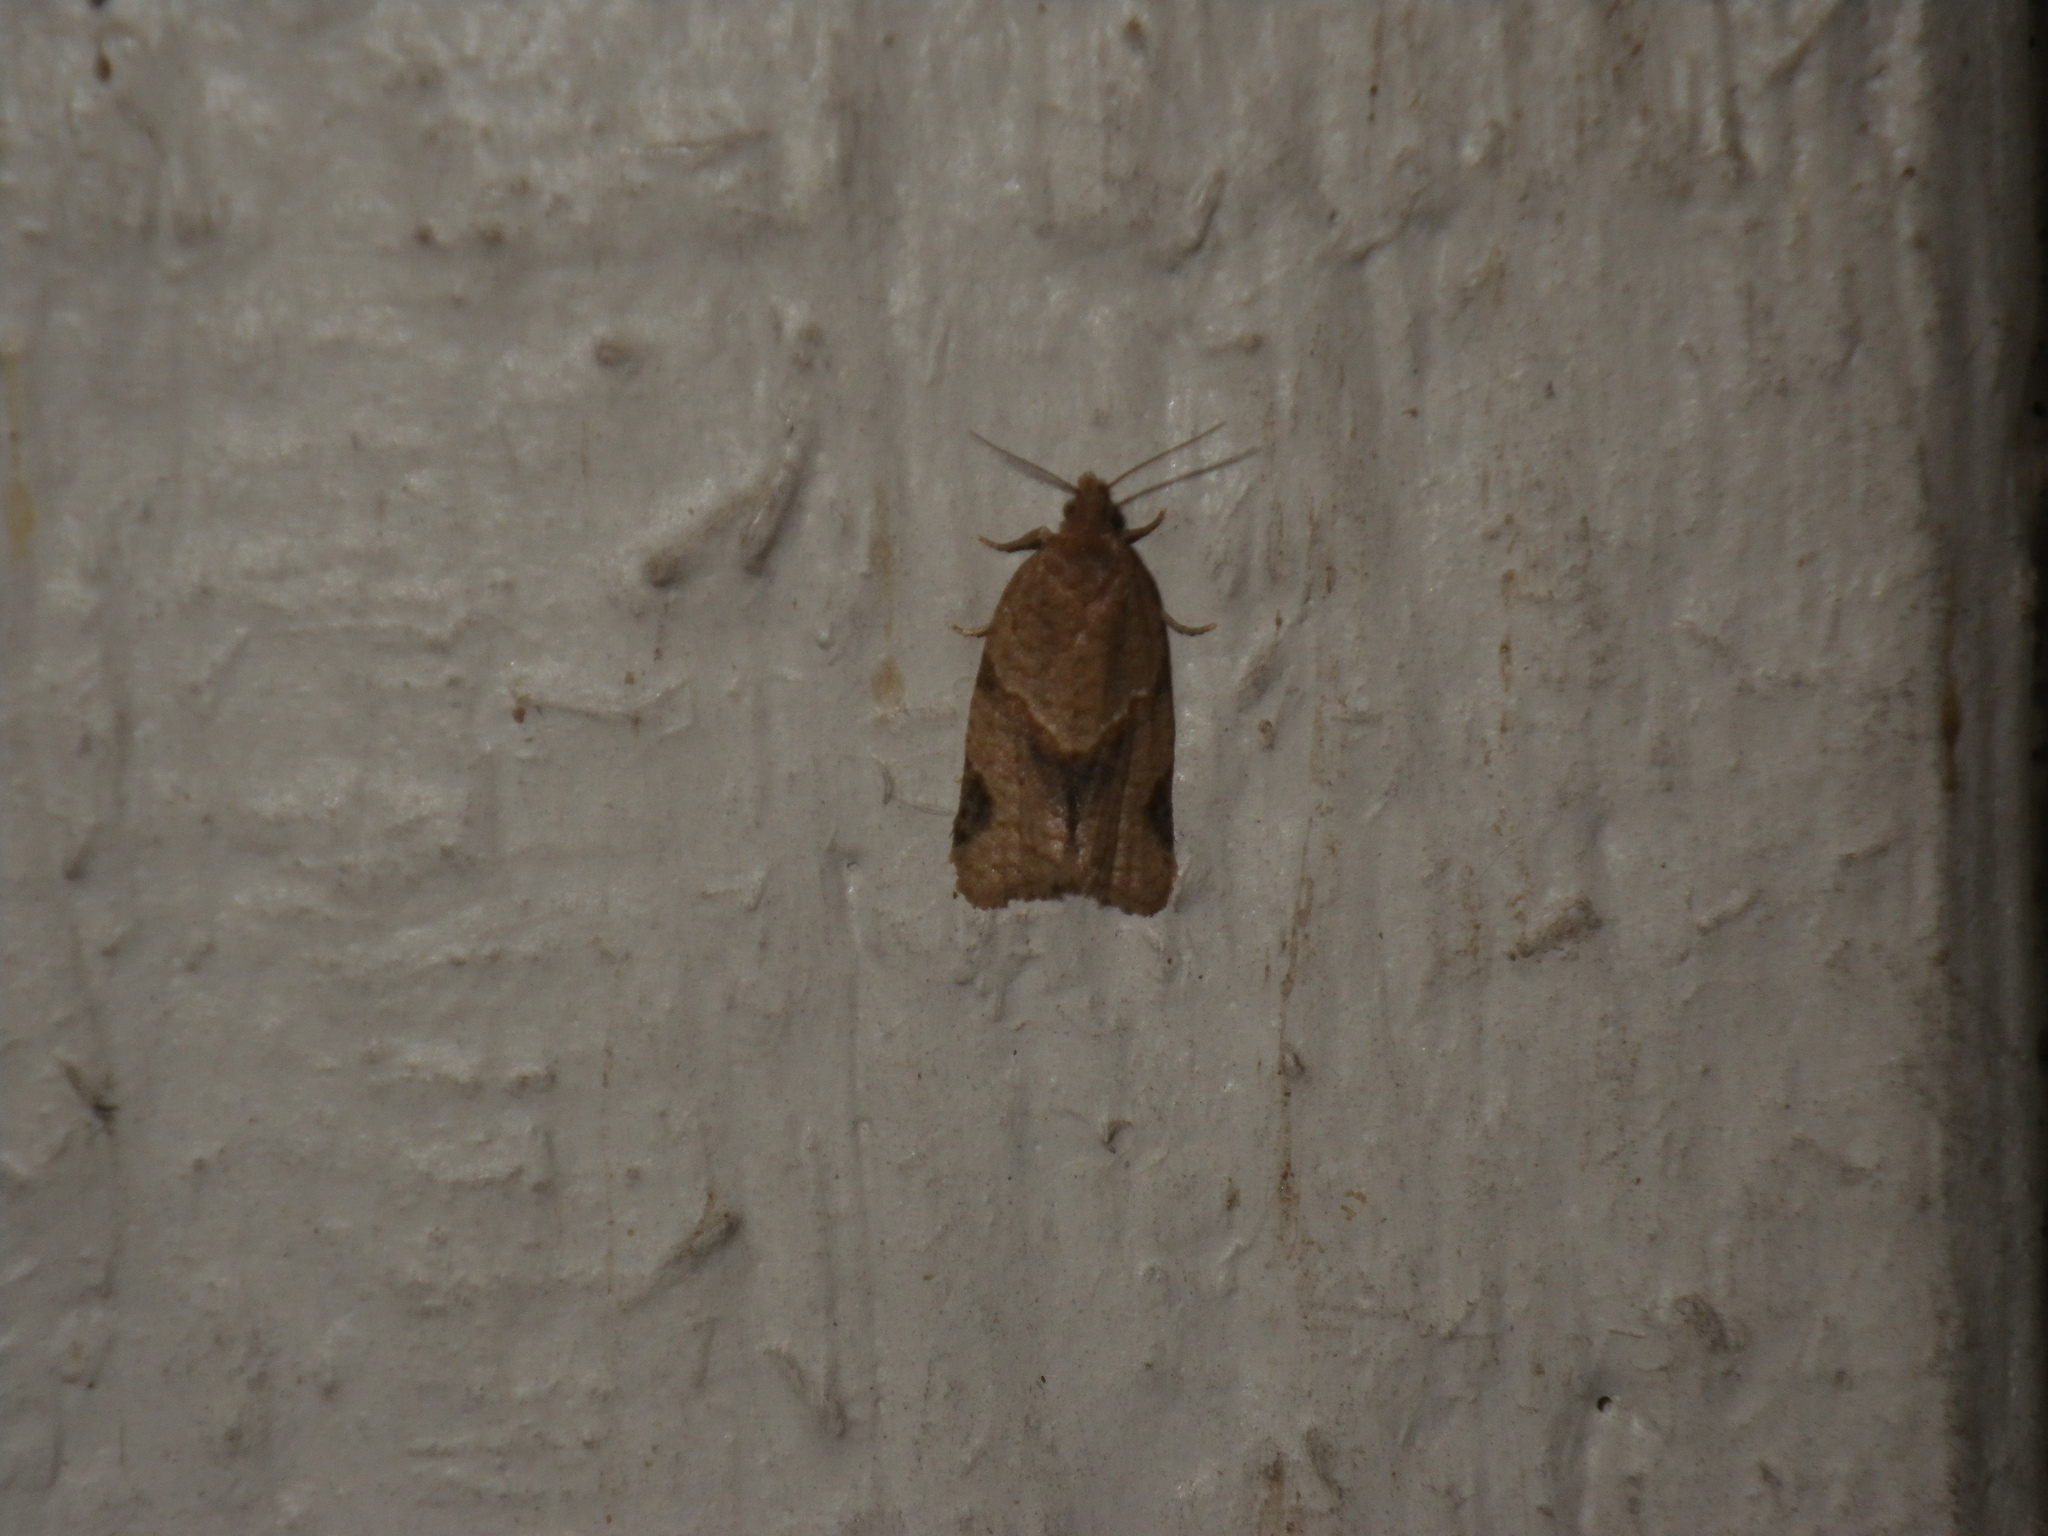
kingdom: Animalia
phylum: Arthropoda
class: Insecta
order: Lepidoptera
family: Tortricidae
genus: Clepsis
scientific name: Clepsis peritana
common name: Garden tortrix
